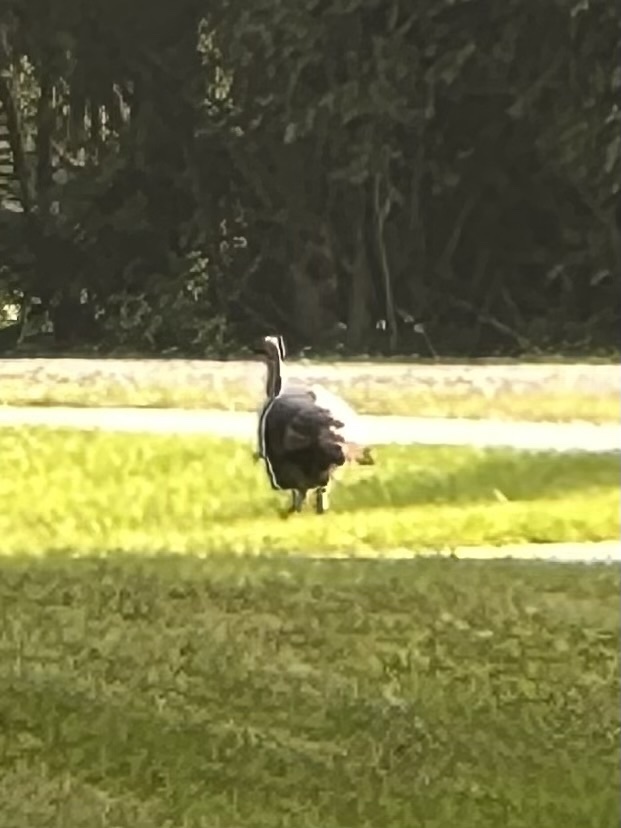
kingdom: Animalia
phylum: Chordata
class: Aves
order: Galliformes
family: Phasianidae
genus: Meleagris
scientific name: Meleagris gallopavo
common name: Wild turkey
